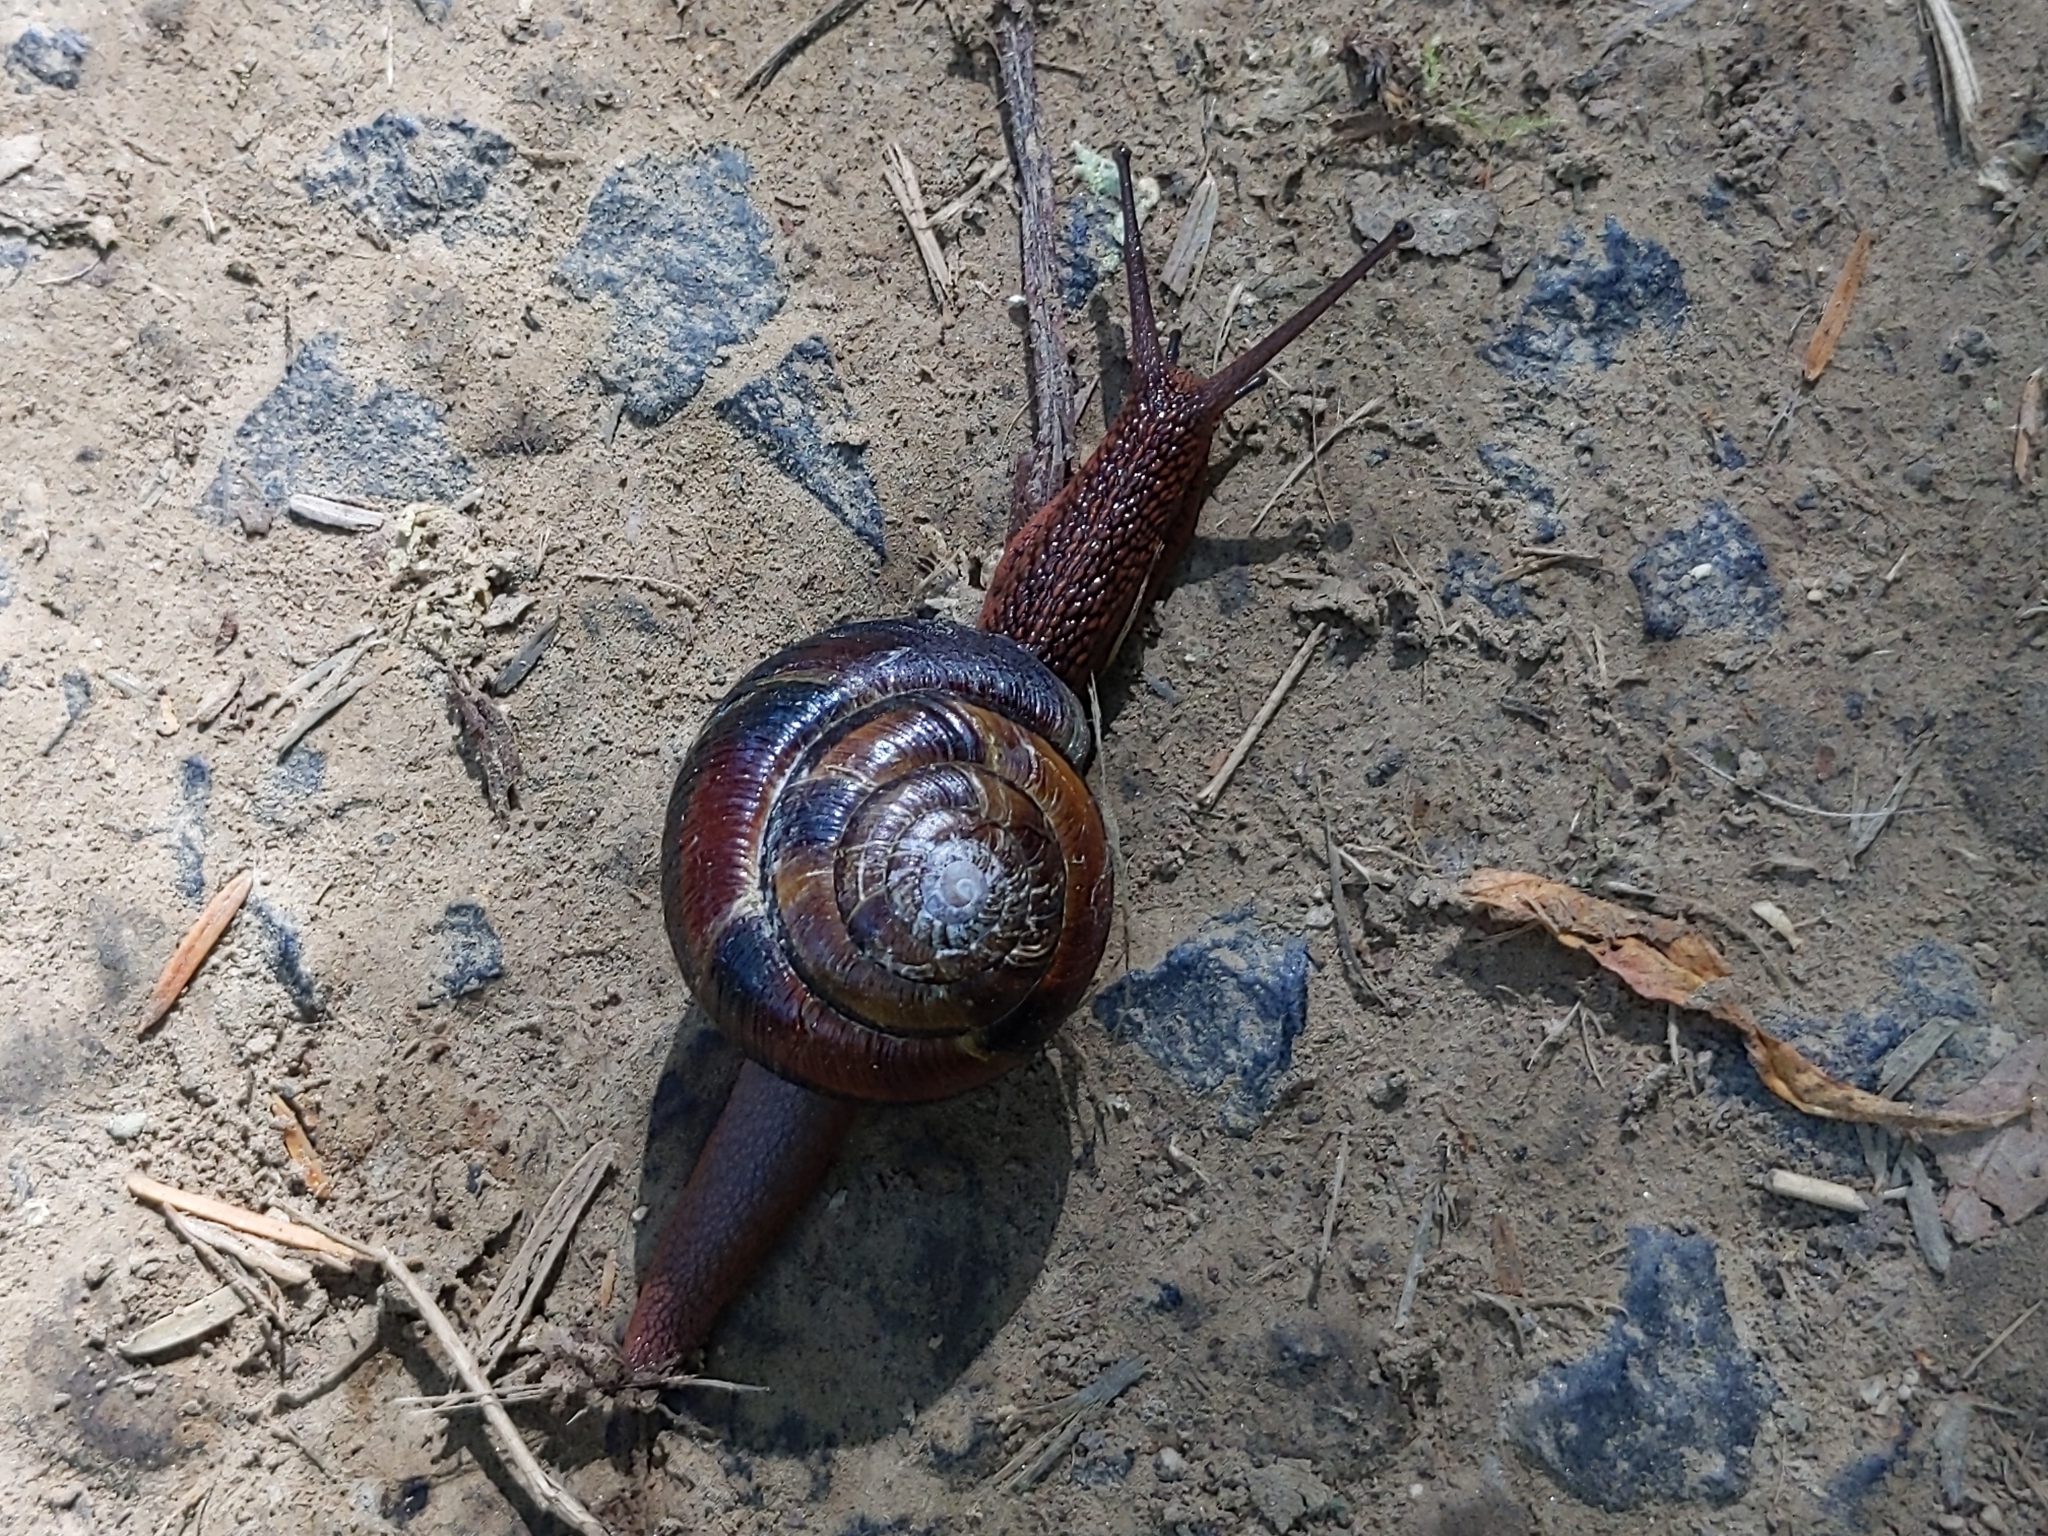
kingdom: Animalia
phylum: Mollusca
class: Gastropoda
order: Stylommatophora
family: Xanthonychidae
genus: Monadenia
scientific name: Monadenia fidelis
